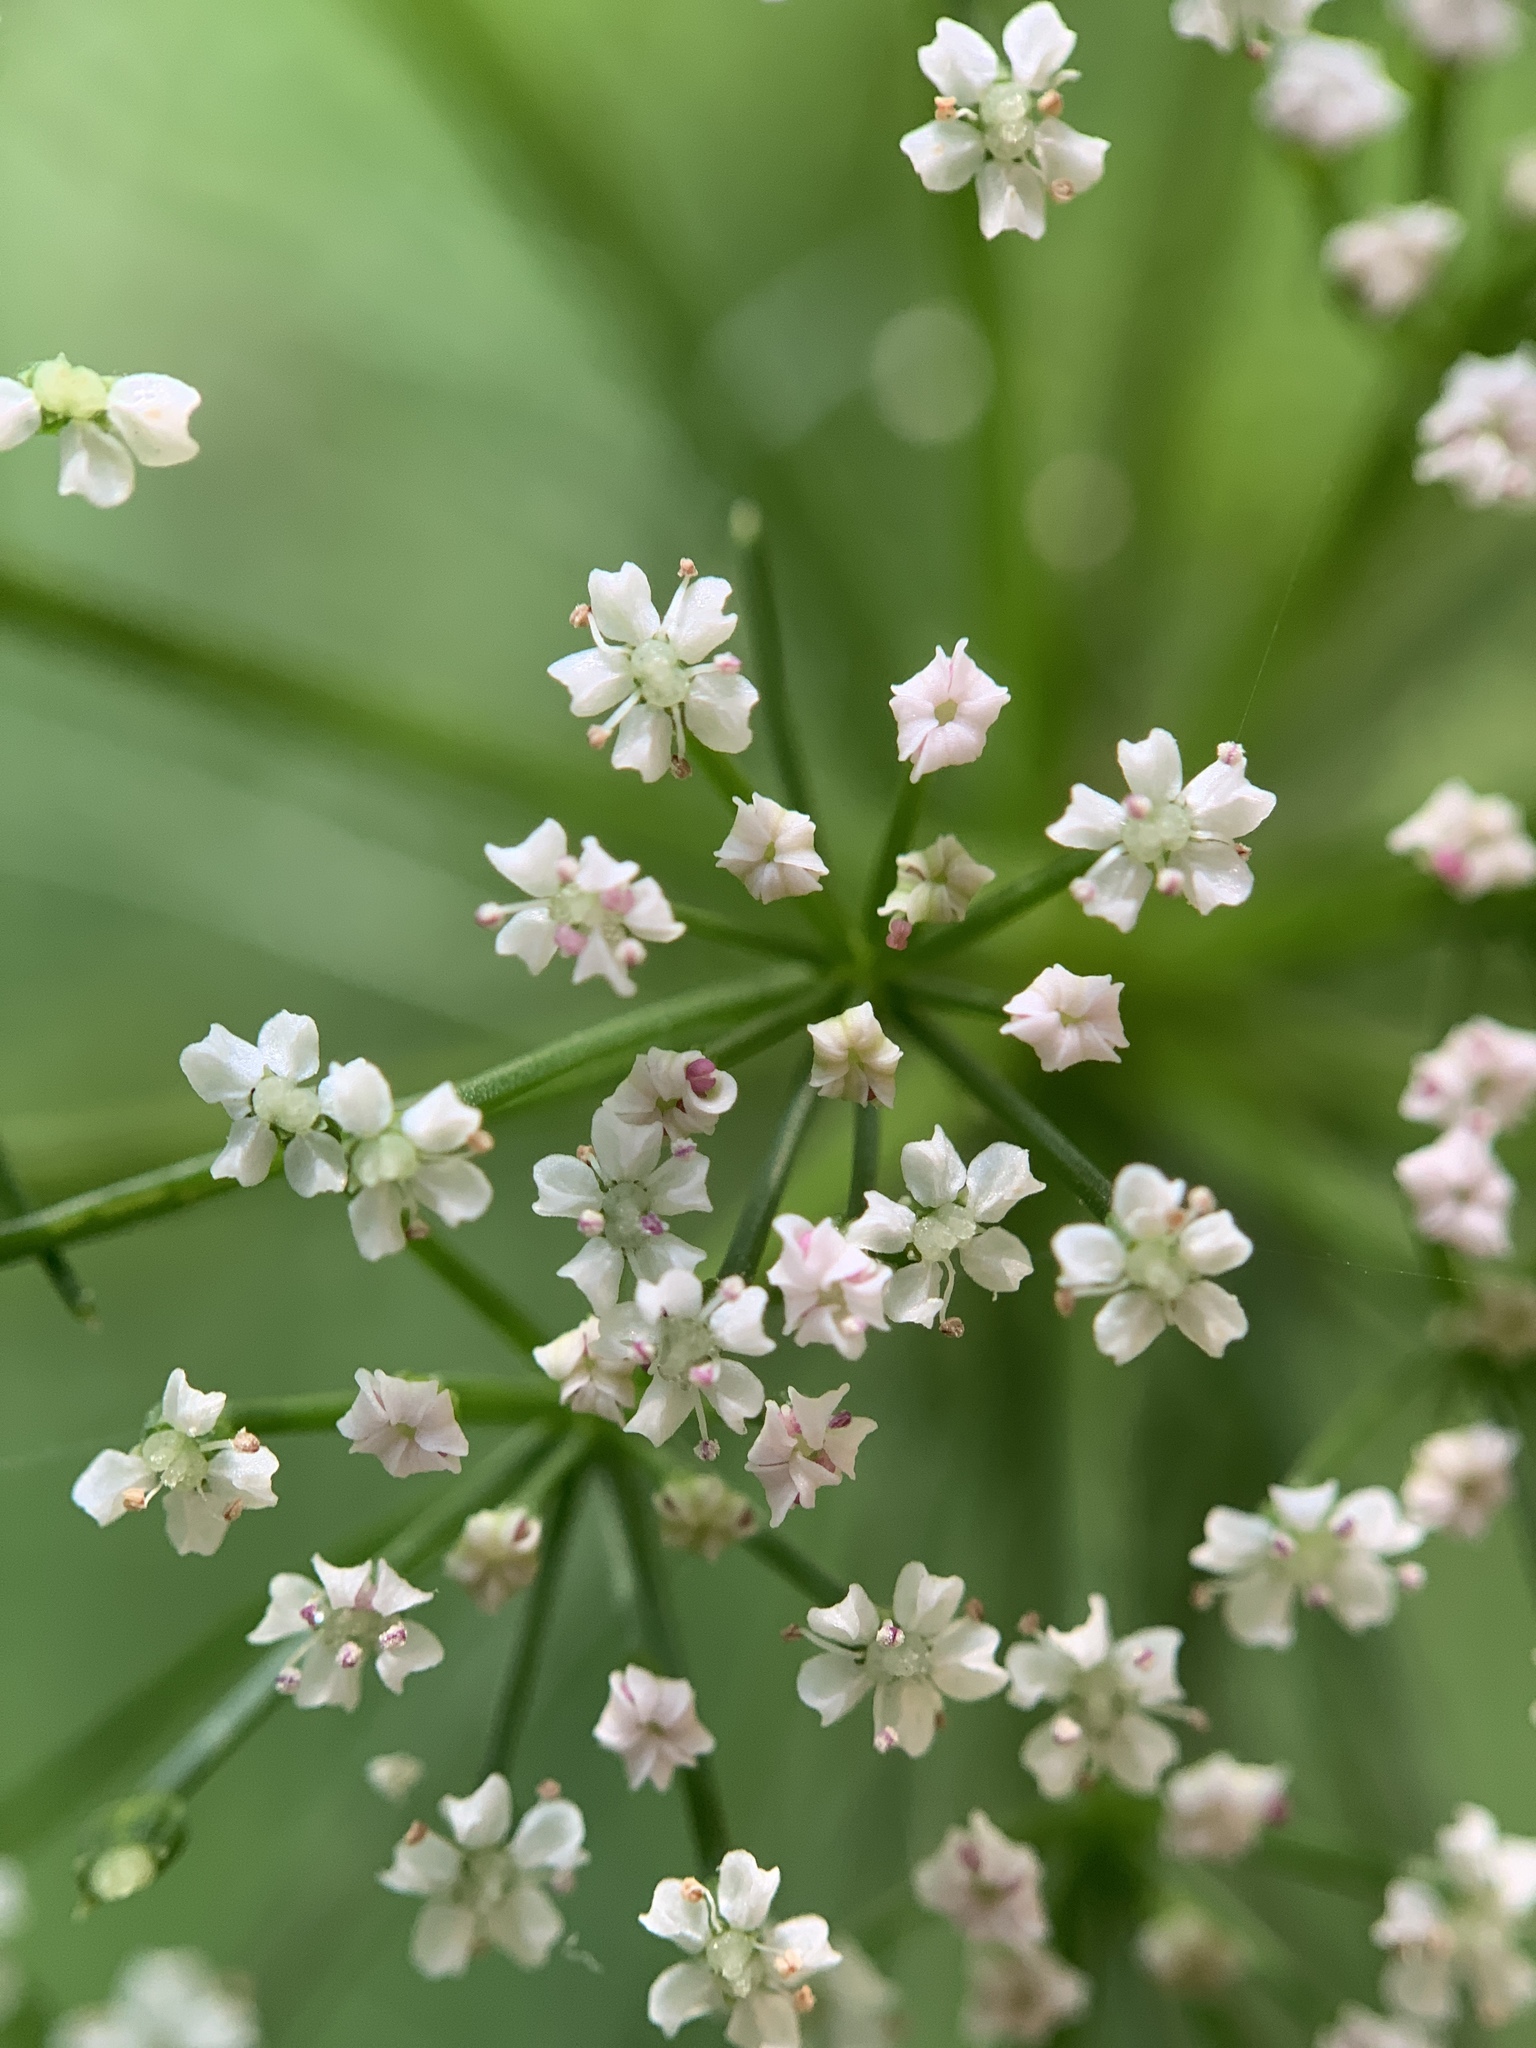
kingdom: Plantae
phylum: Tracheophyta
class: Magnoliopsida
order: Apiales
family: Apiaceae
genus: Ptilimnium
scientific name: Ptilimnium capillaceum
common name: Herbwilliam
